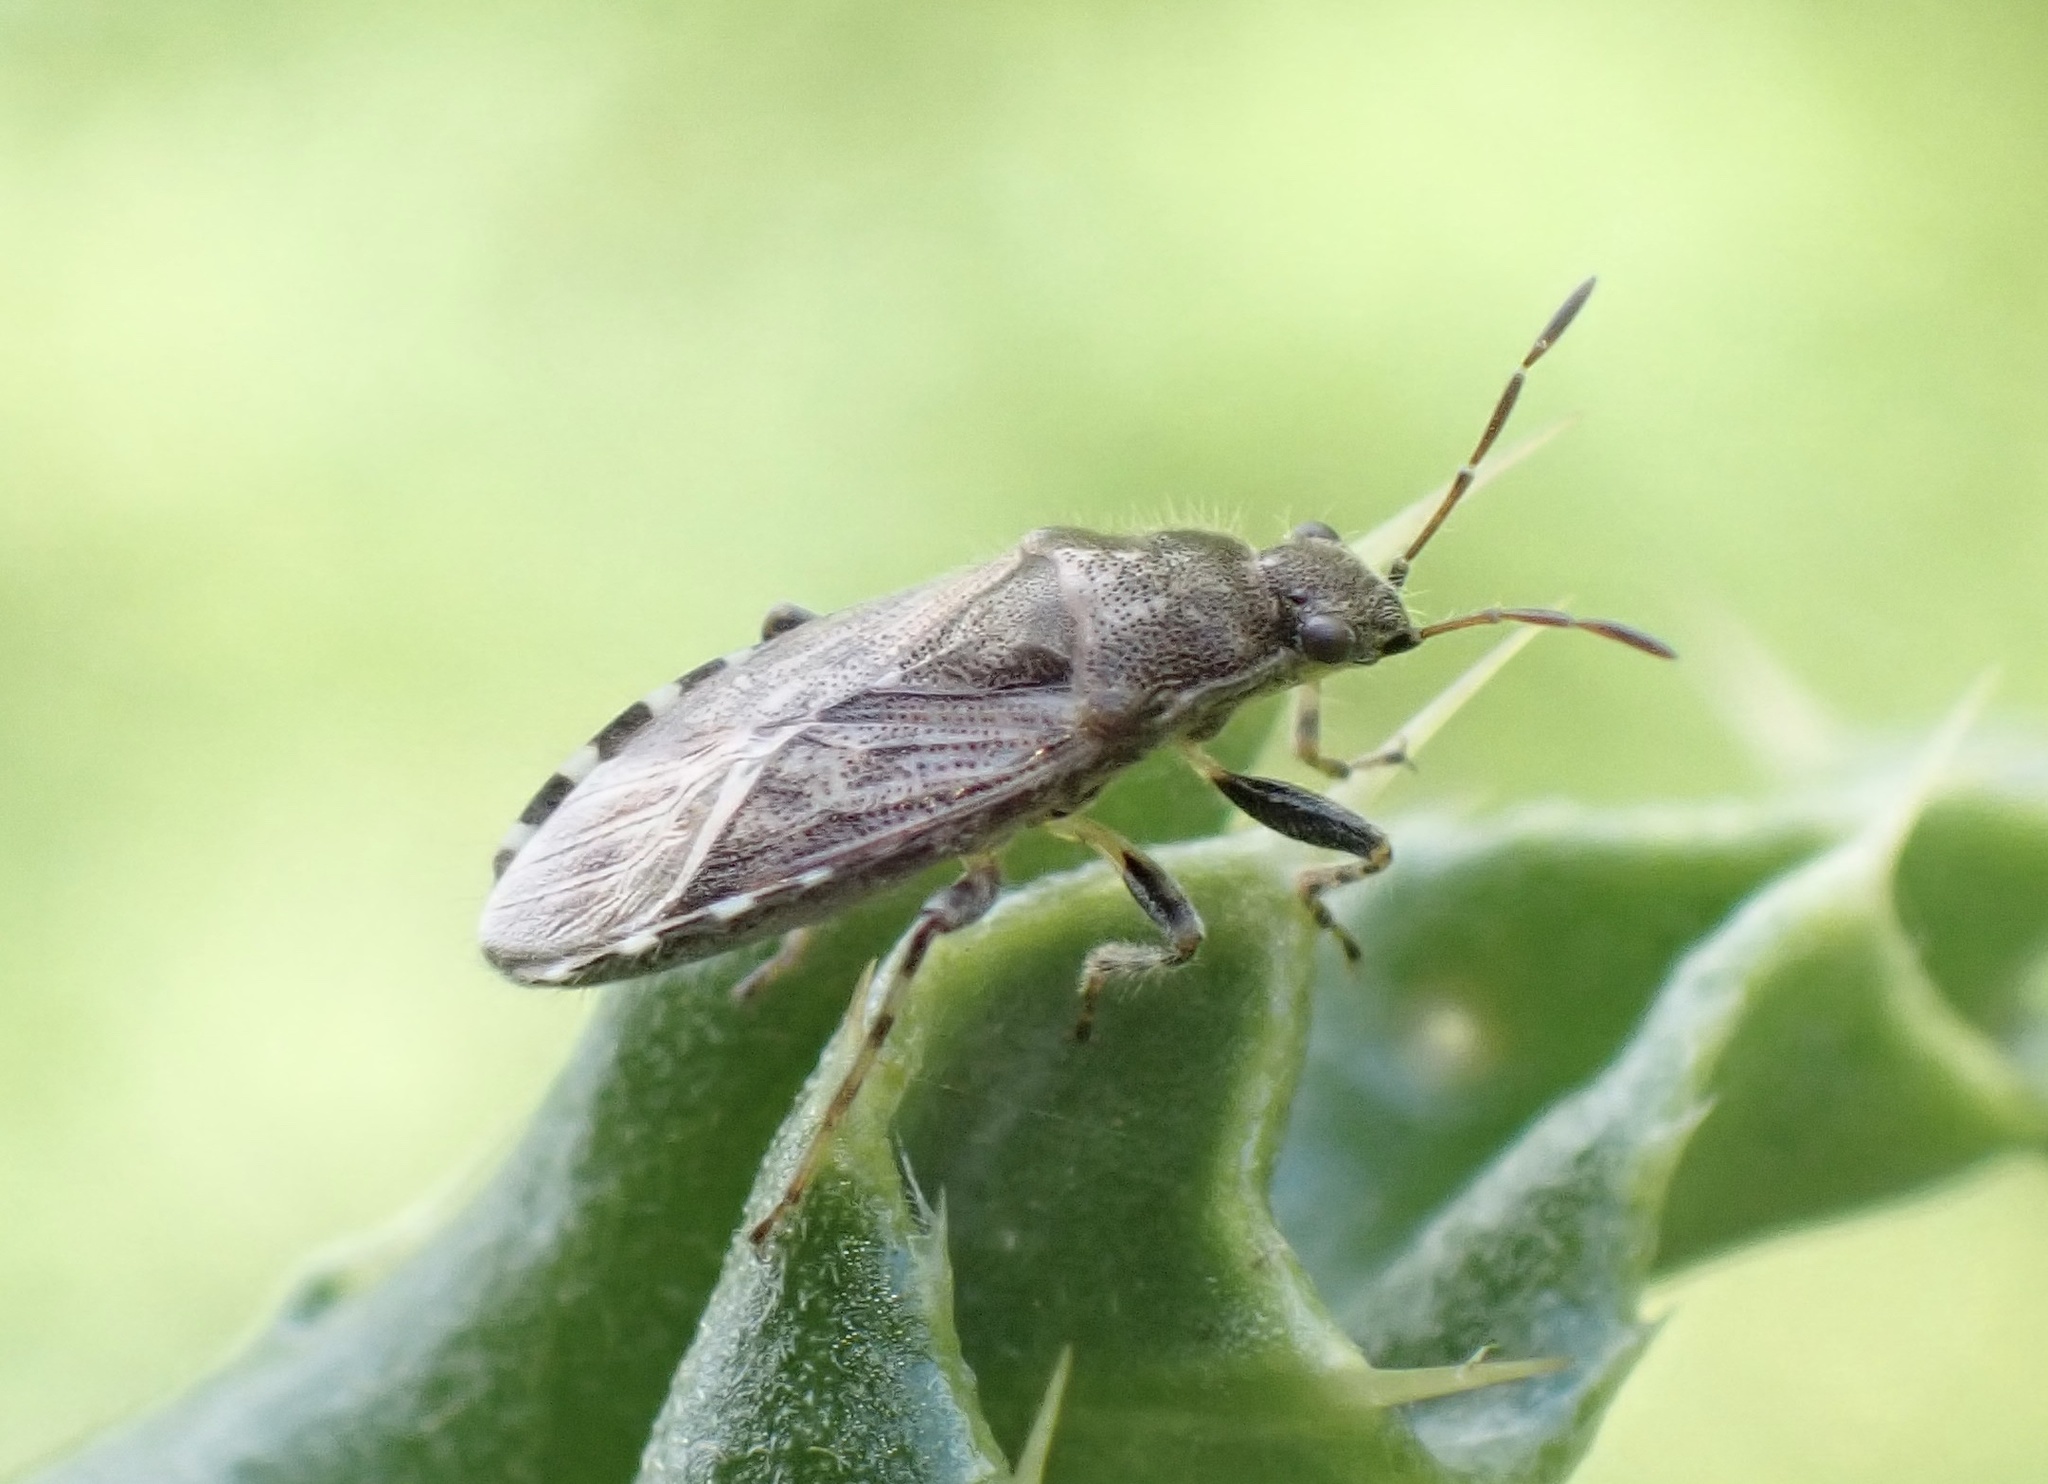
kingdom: Animalia
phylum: Arthropoda
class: Insecta
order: Hemiptera
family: Heterogastridae
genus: Heterogaster
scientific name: Heterogaster urticae
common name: Seed bug
